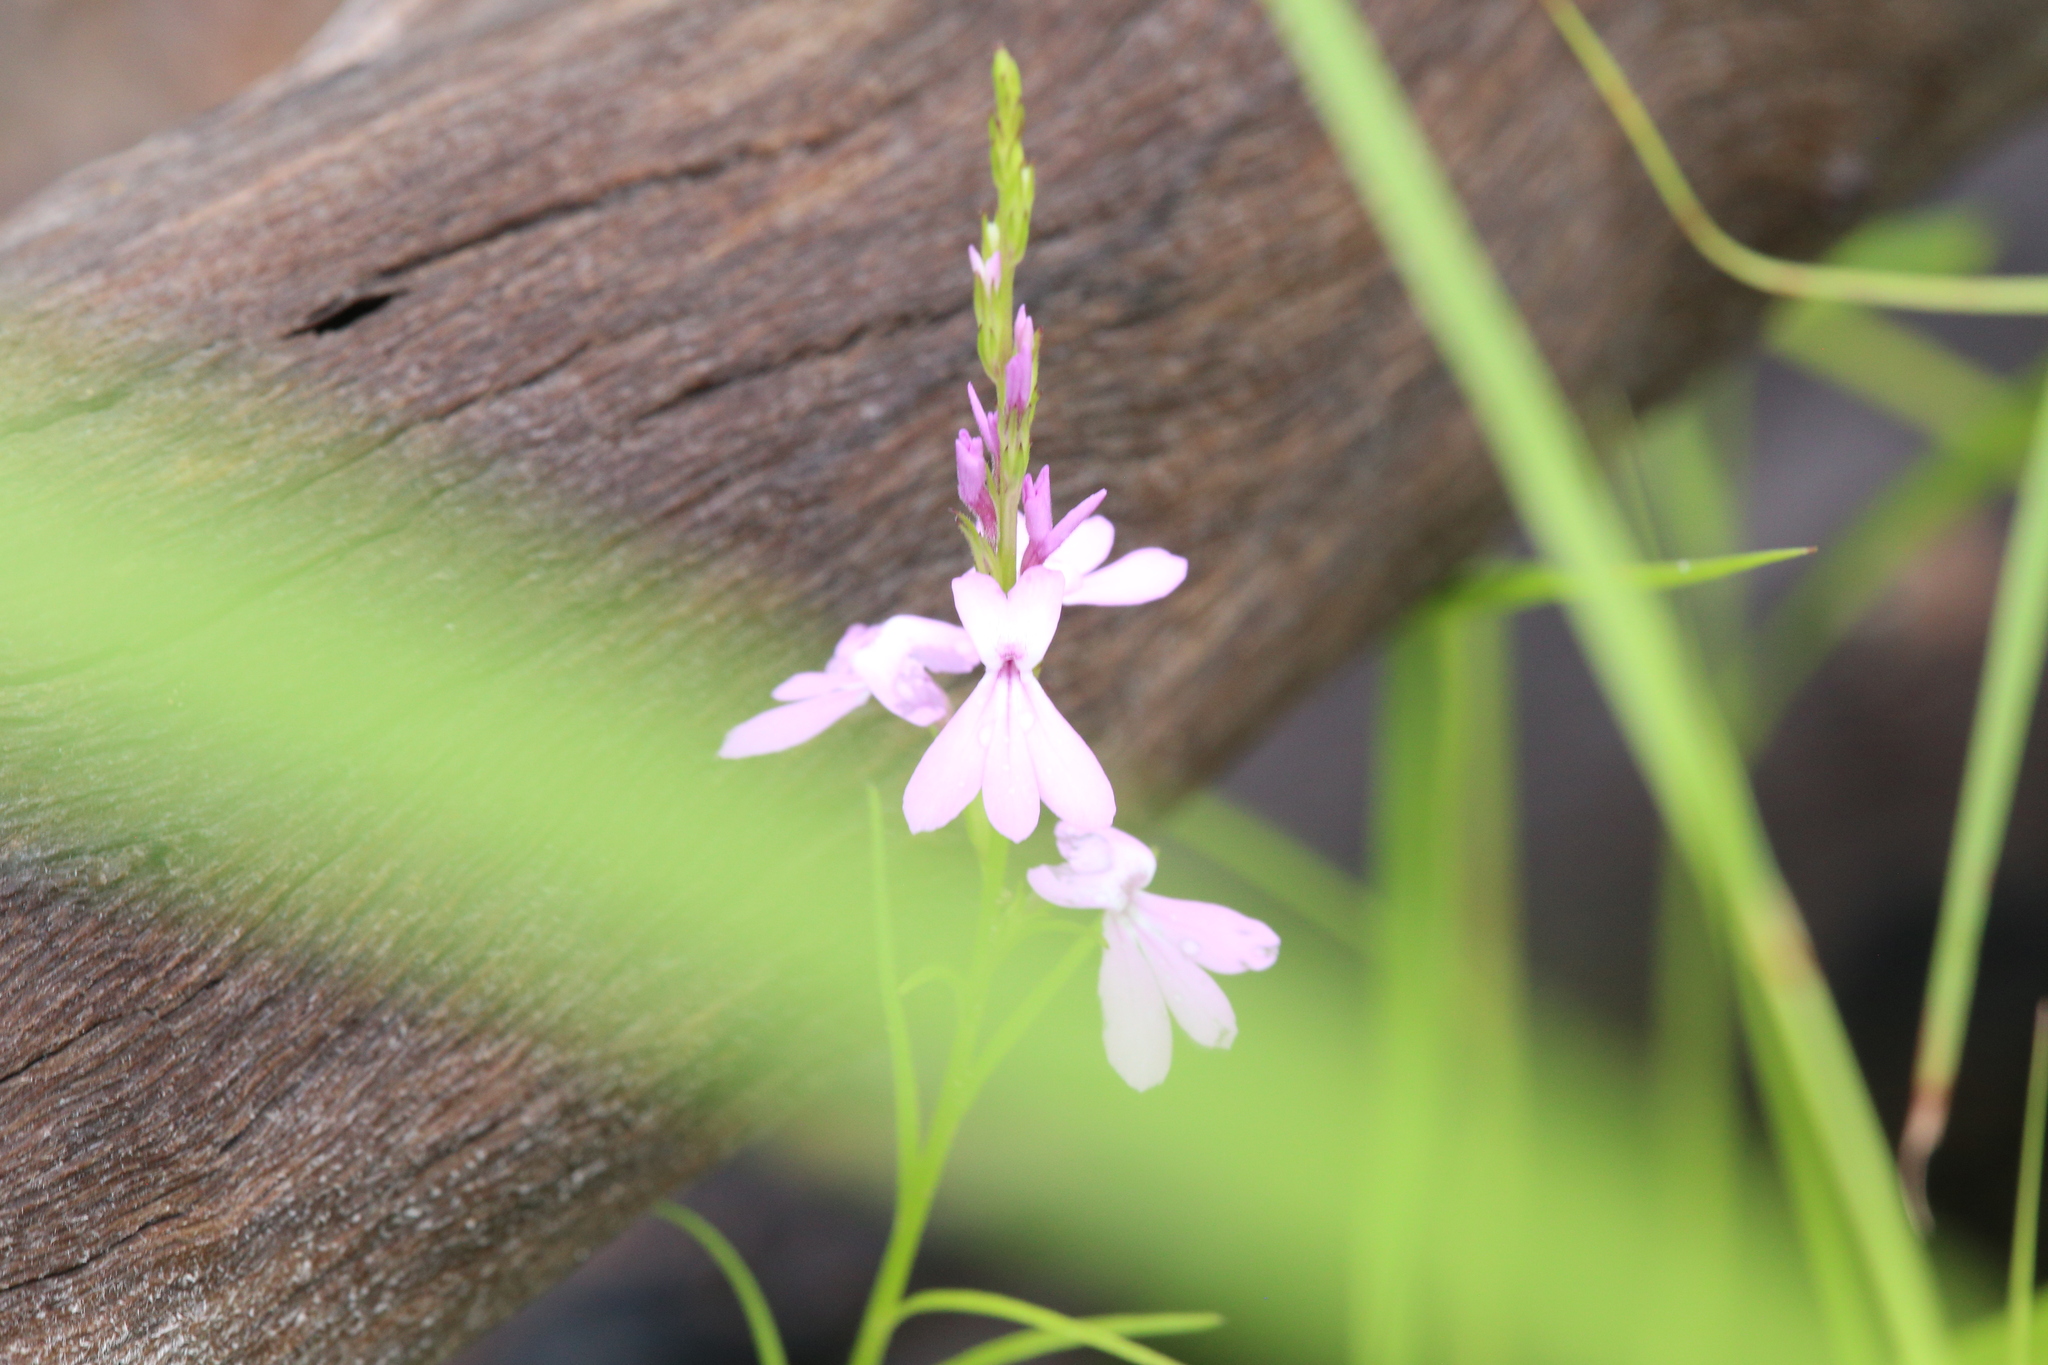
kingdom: Plantae
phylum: Tracheophyta
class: Magnoliopsida
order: Lamiales
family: Orobanchaceae
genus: Striga
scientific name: Striga curviflora
